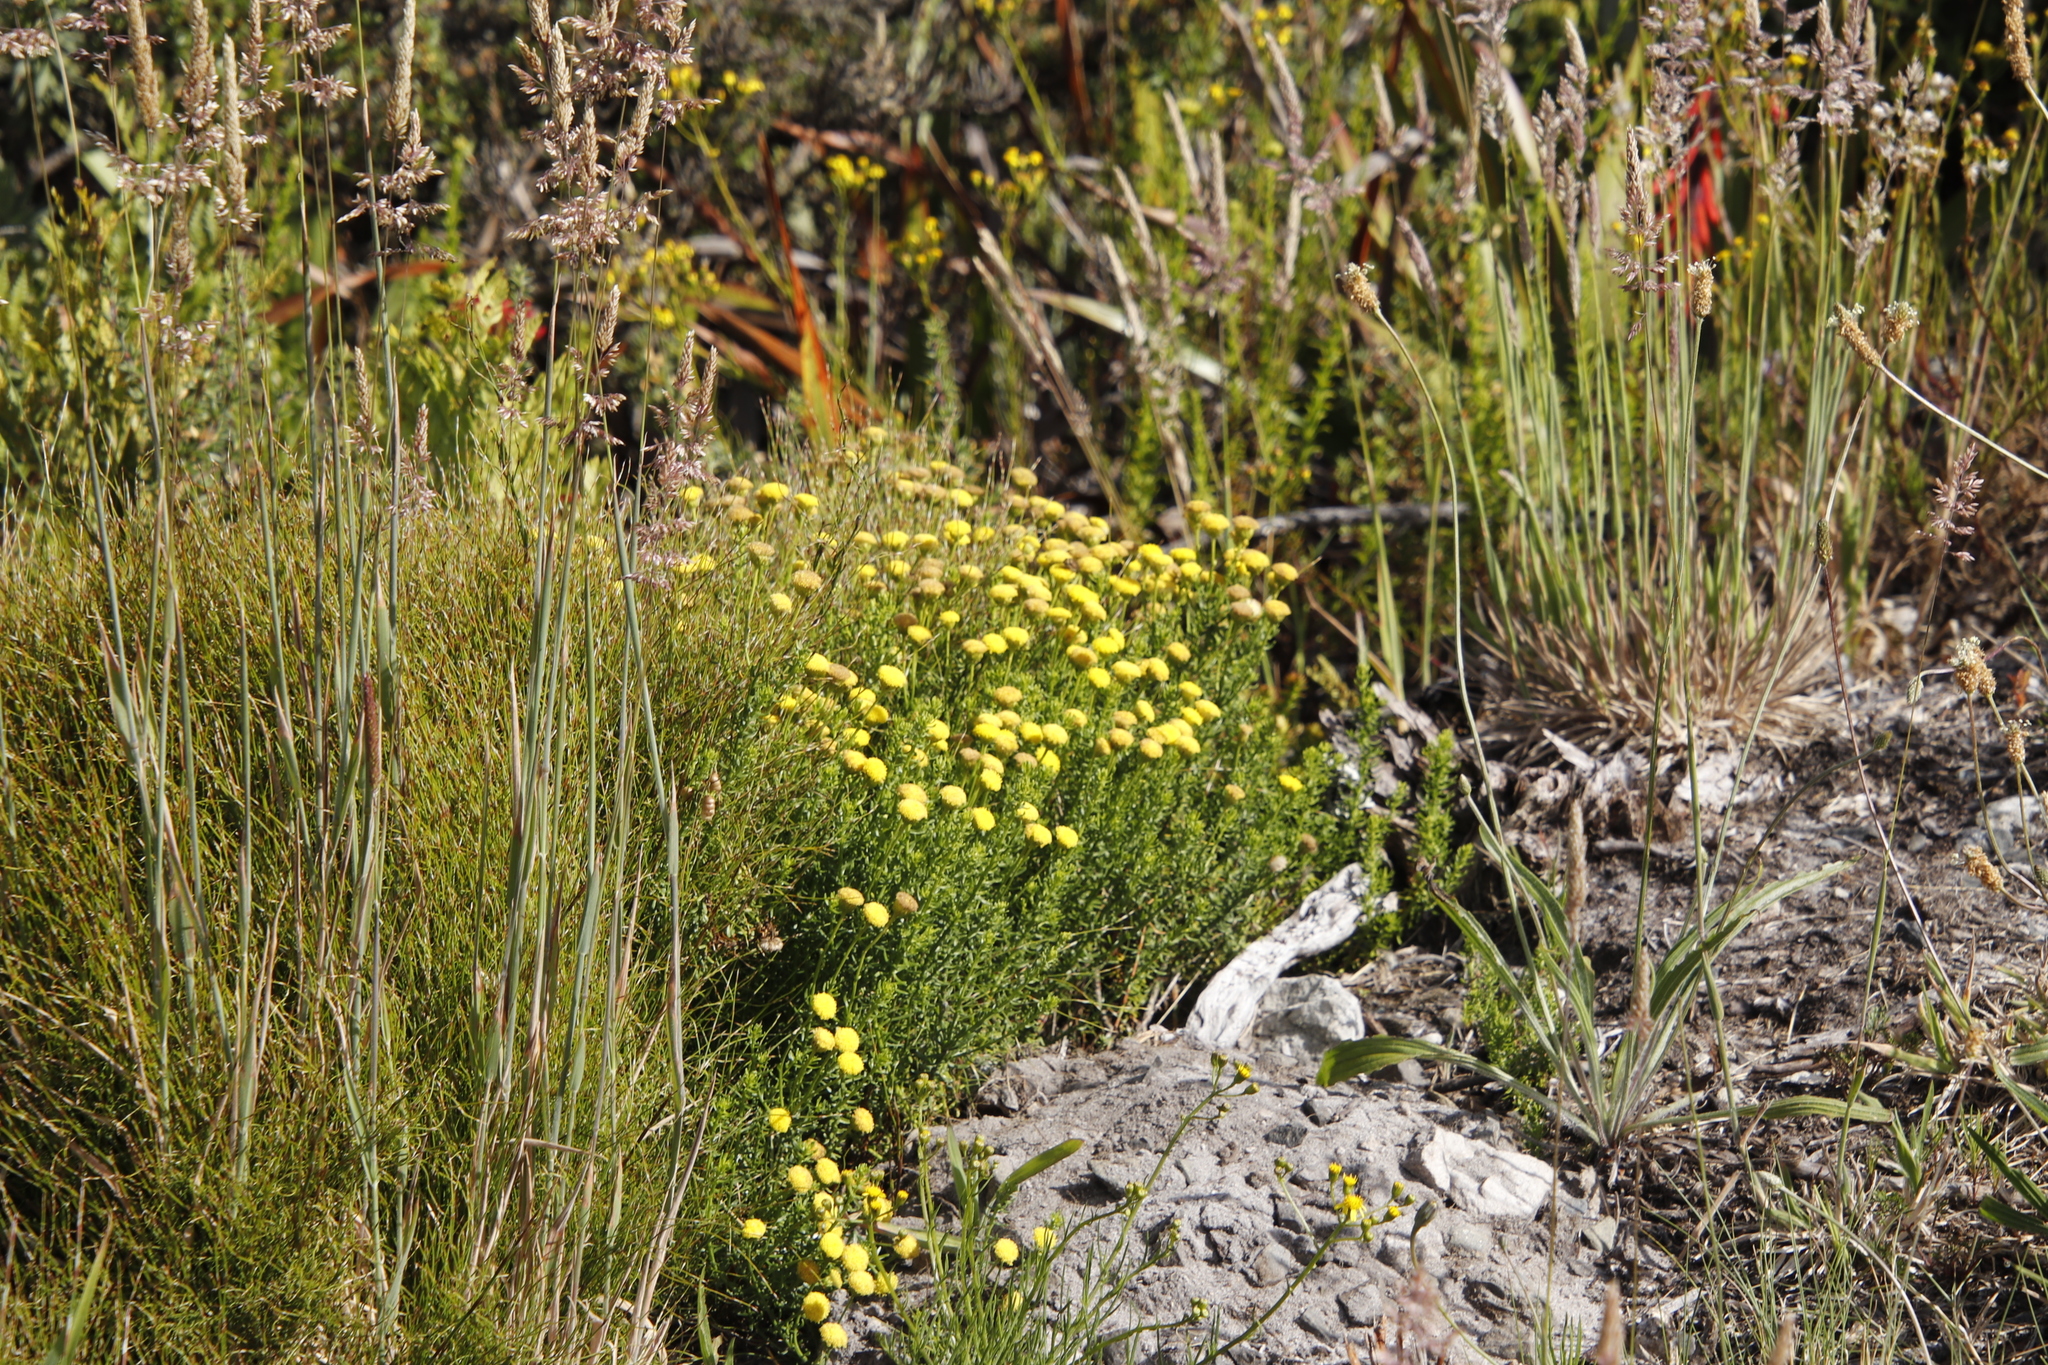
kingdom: Plantae
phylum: Tracheophyta
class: Magnoliopsida
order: Asterales
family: Asteraceae
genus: Chrysocoma
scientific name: Chrysocoma cernua
